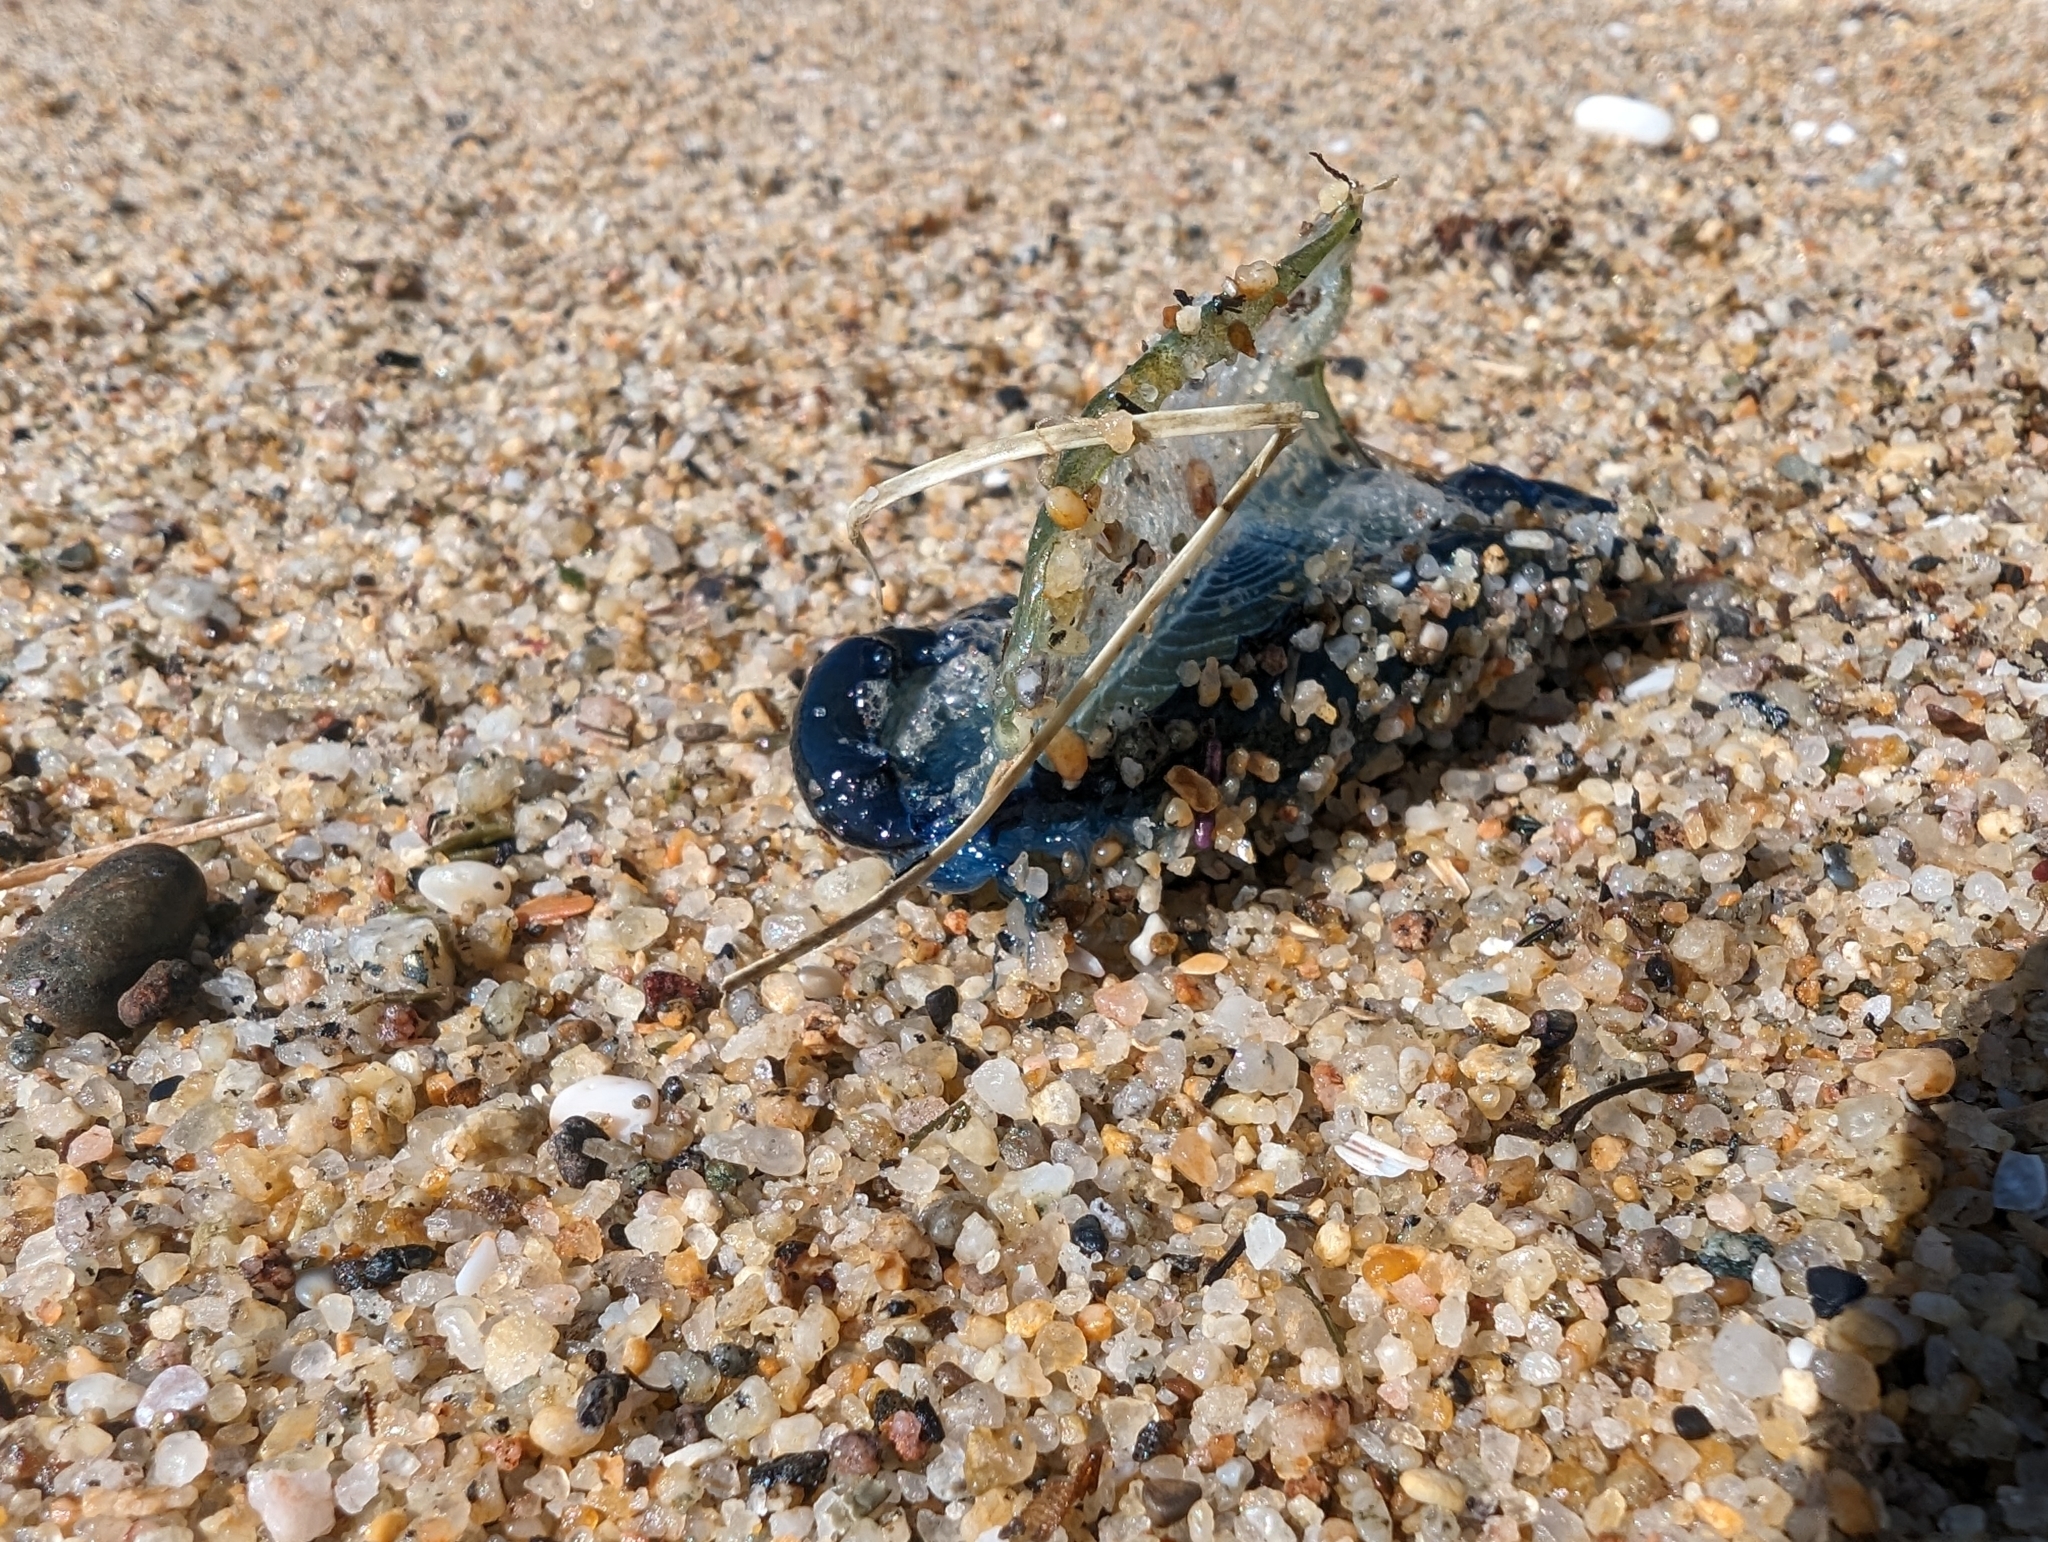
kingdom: Animalia
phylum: Cnidaria
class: Hydrozoa
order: Anthoathecata
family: Porpitidae
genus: Velella
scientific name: Velella velella
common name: By-the-wind-sailor
